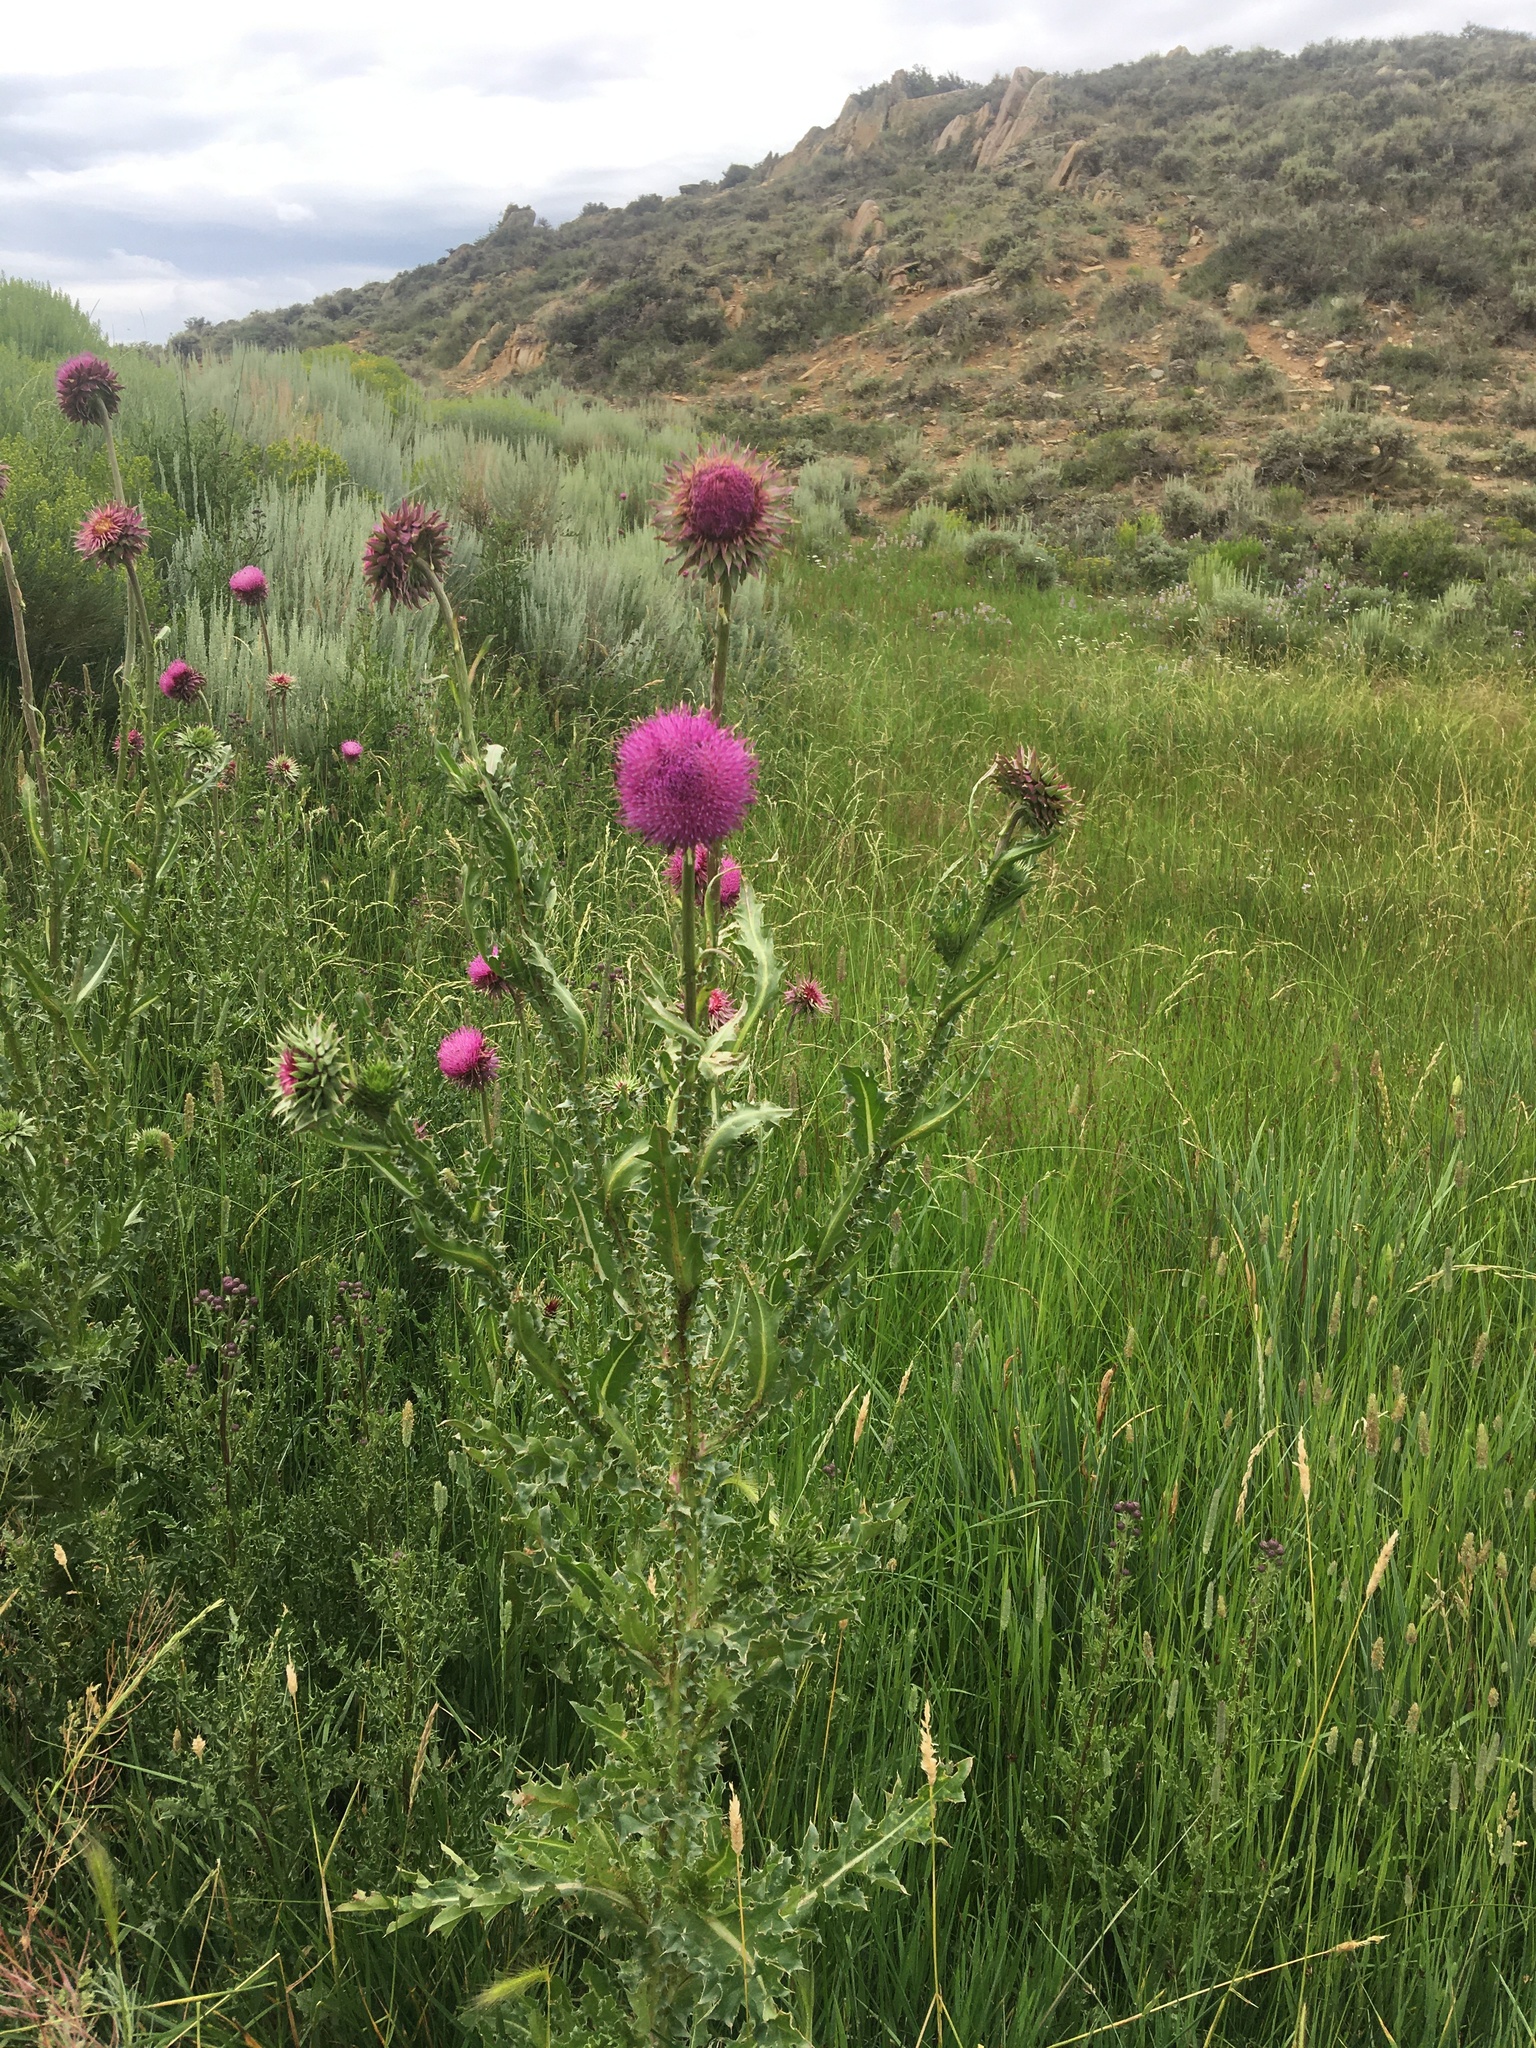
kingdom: Plantae
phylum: Tracheophyta
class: Magnoliopsida
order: Asterales
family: Asteraceae
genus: Carduus
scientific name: Carduus nutans
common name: Musk thistle
